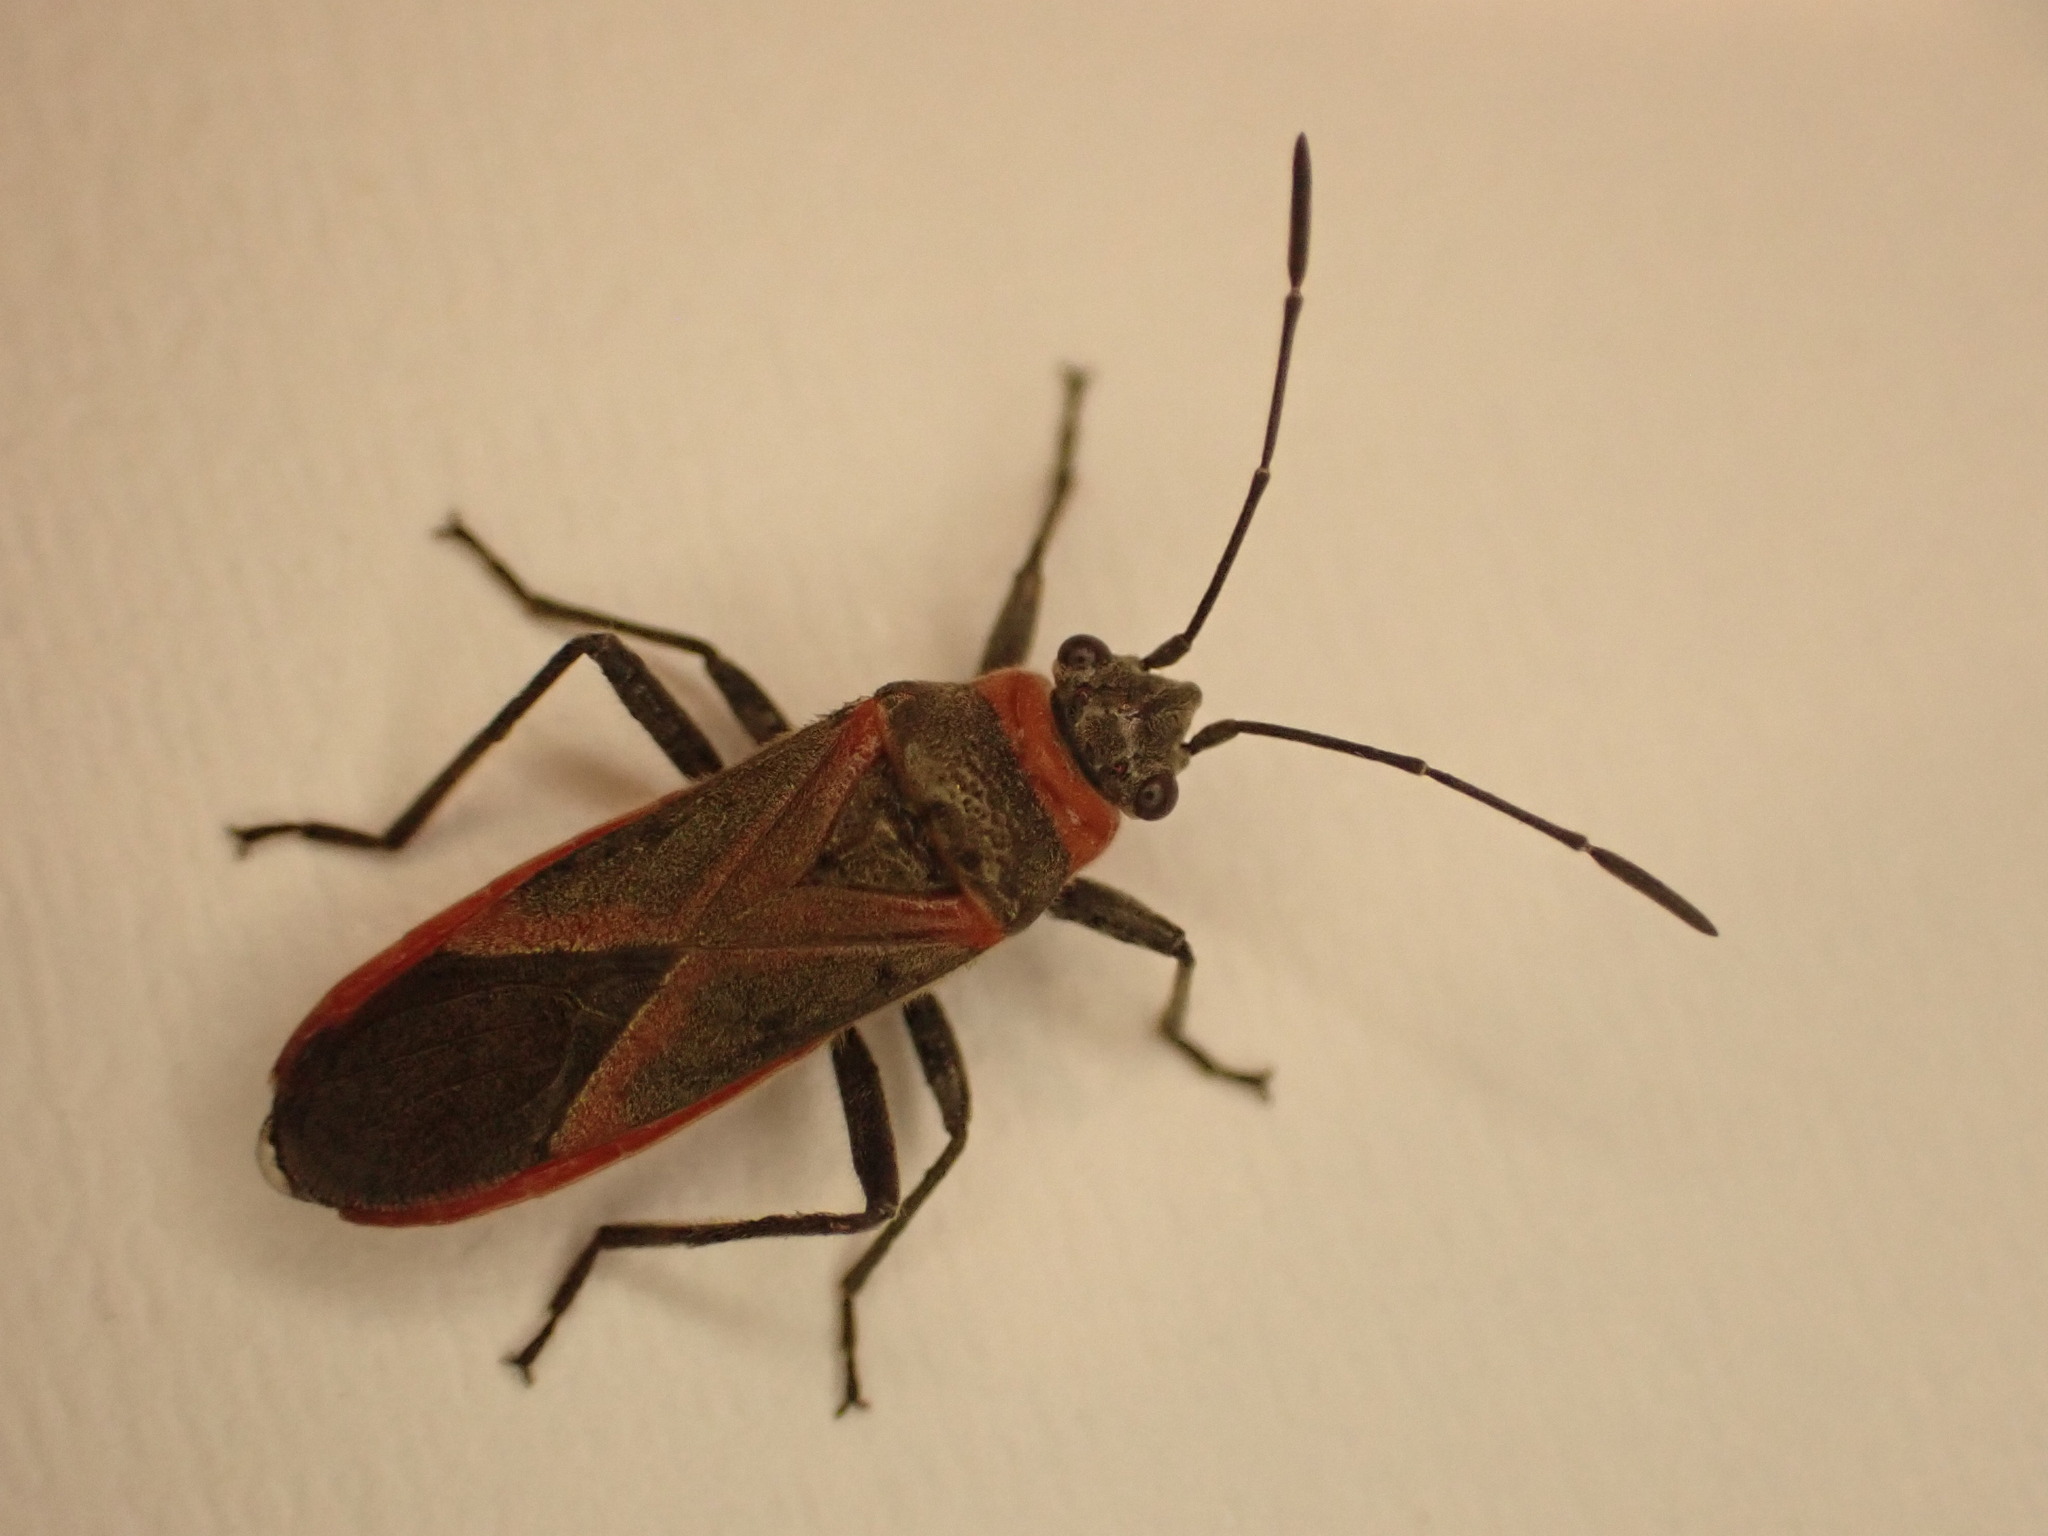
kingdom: Animalia
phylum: Arthropoda
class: Insecta
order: Hemiptera
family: Lygaeidae
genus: Arocatus
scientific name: Arocatus rusticus
